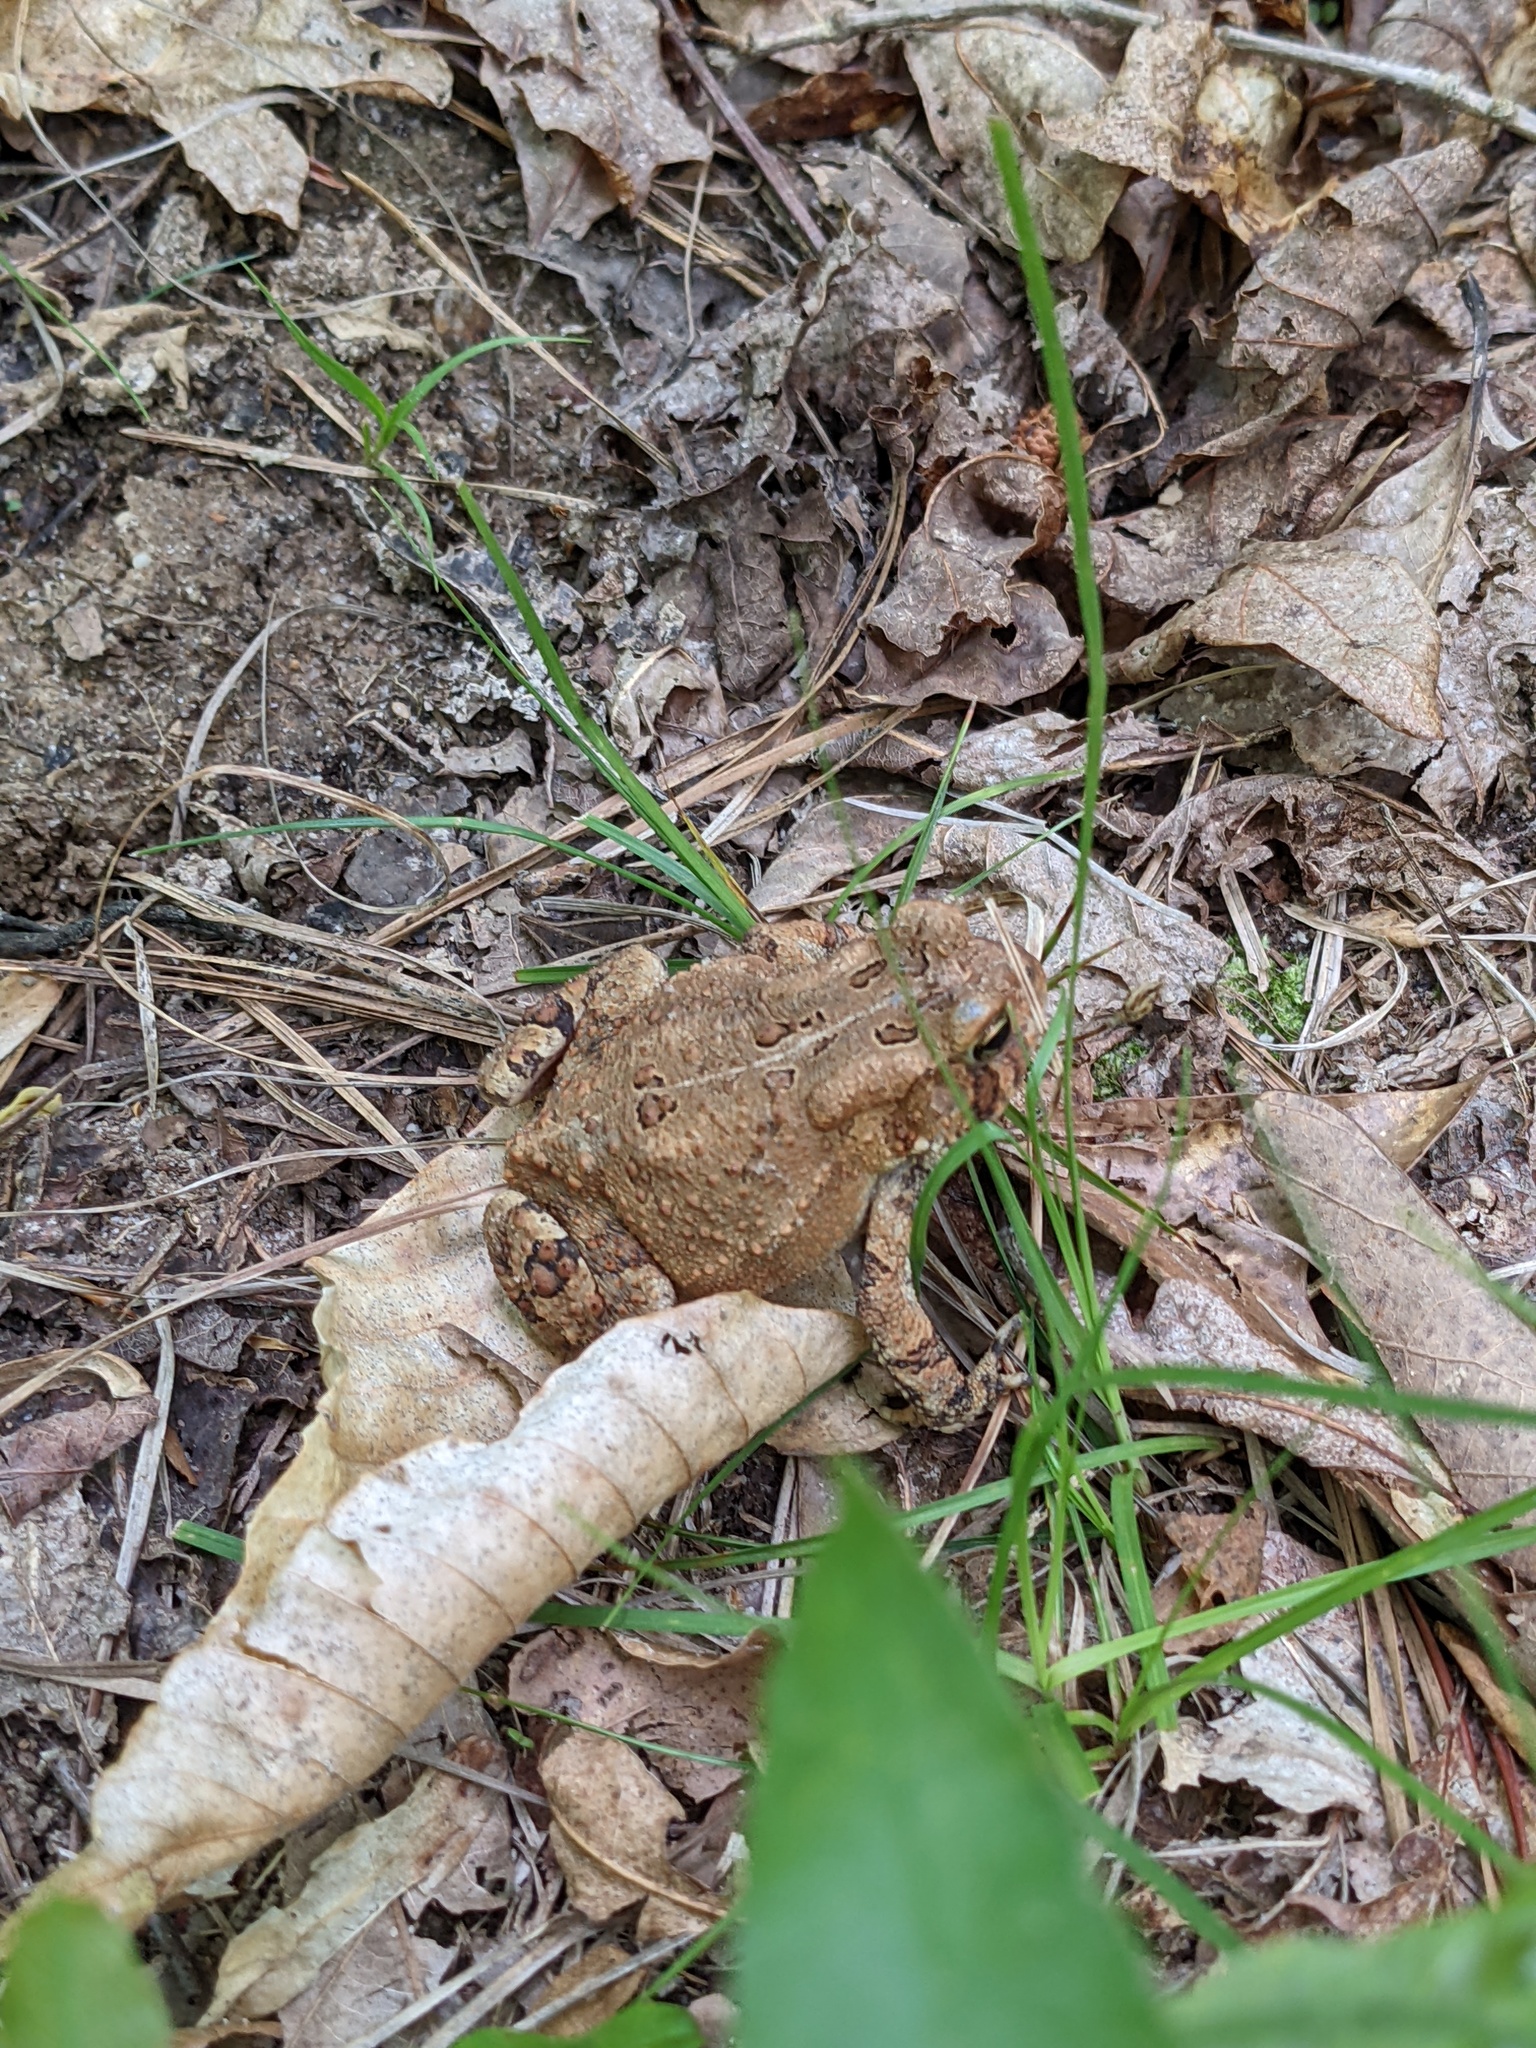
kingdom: Animalia
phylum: Chordata
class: Amphibia
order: Anura
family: Bufonidae
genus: Anaxyrus
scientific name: Anaxyrus americanus
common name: American toad
